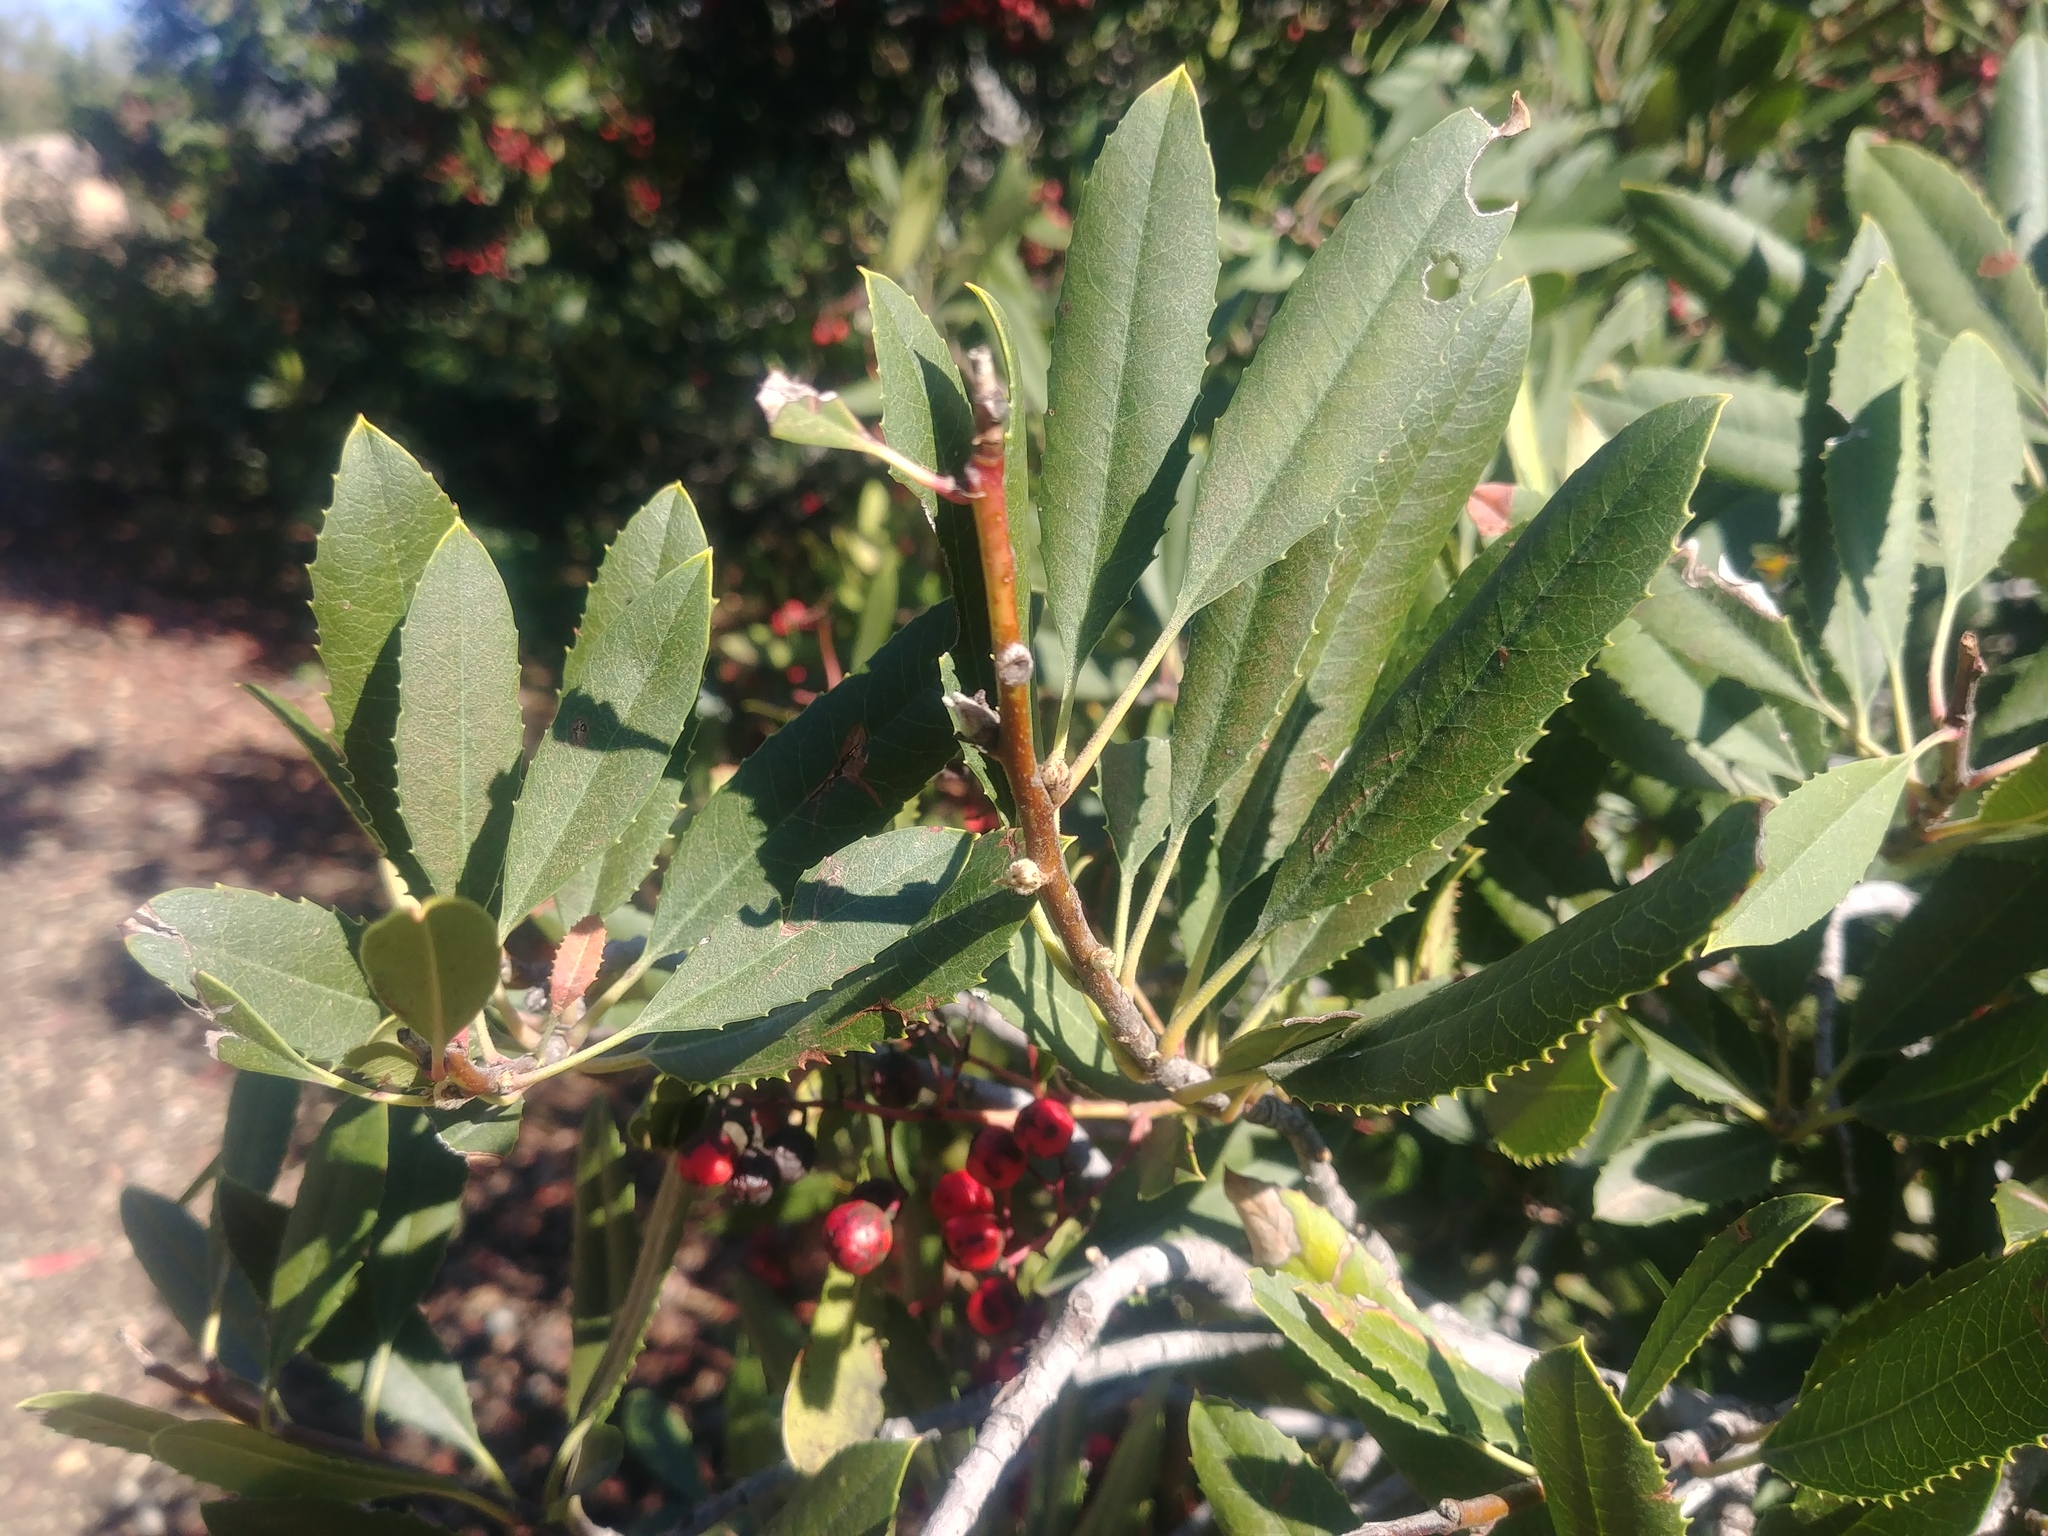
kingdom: Plantae
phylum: Tracheophyta
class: Magnoliopsida
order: Rosales
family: Rosaceae
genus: Heteromeles
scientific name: Heteromeles arbutifolia
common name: California-holly
